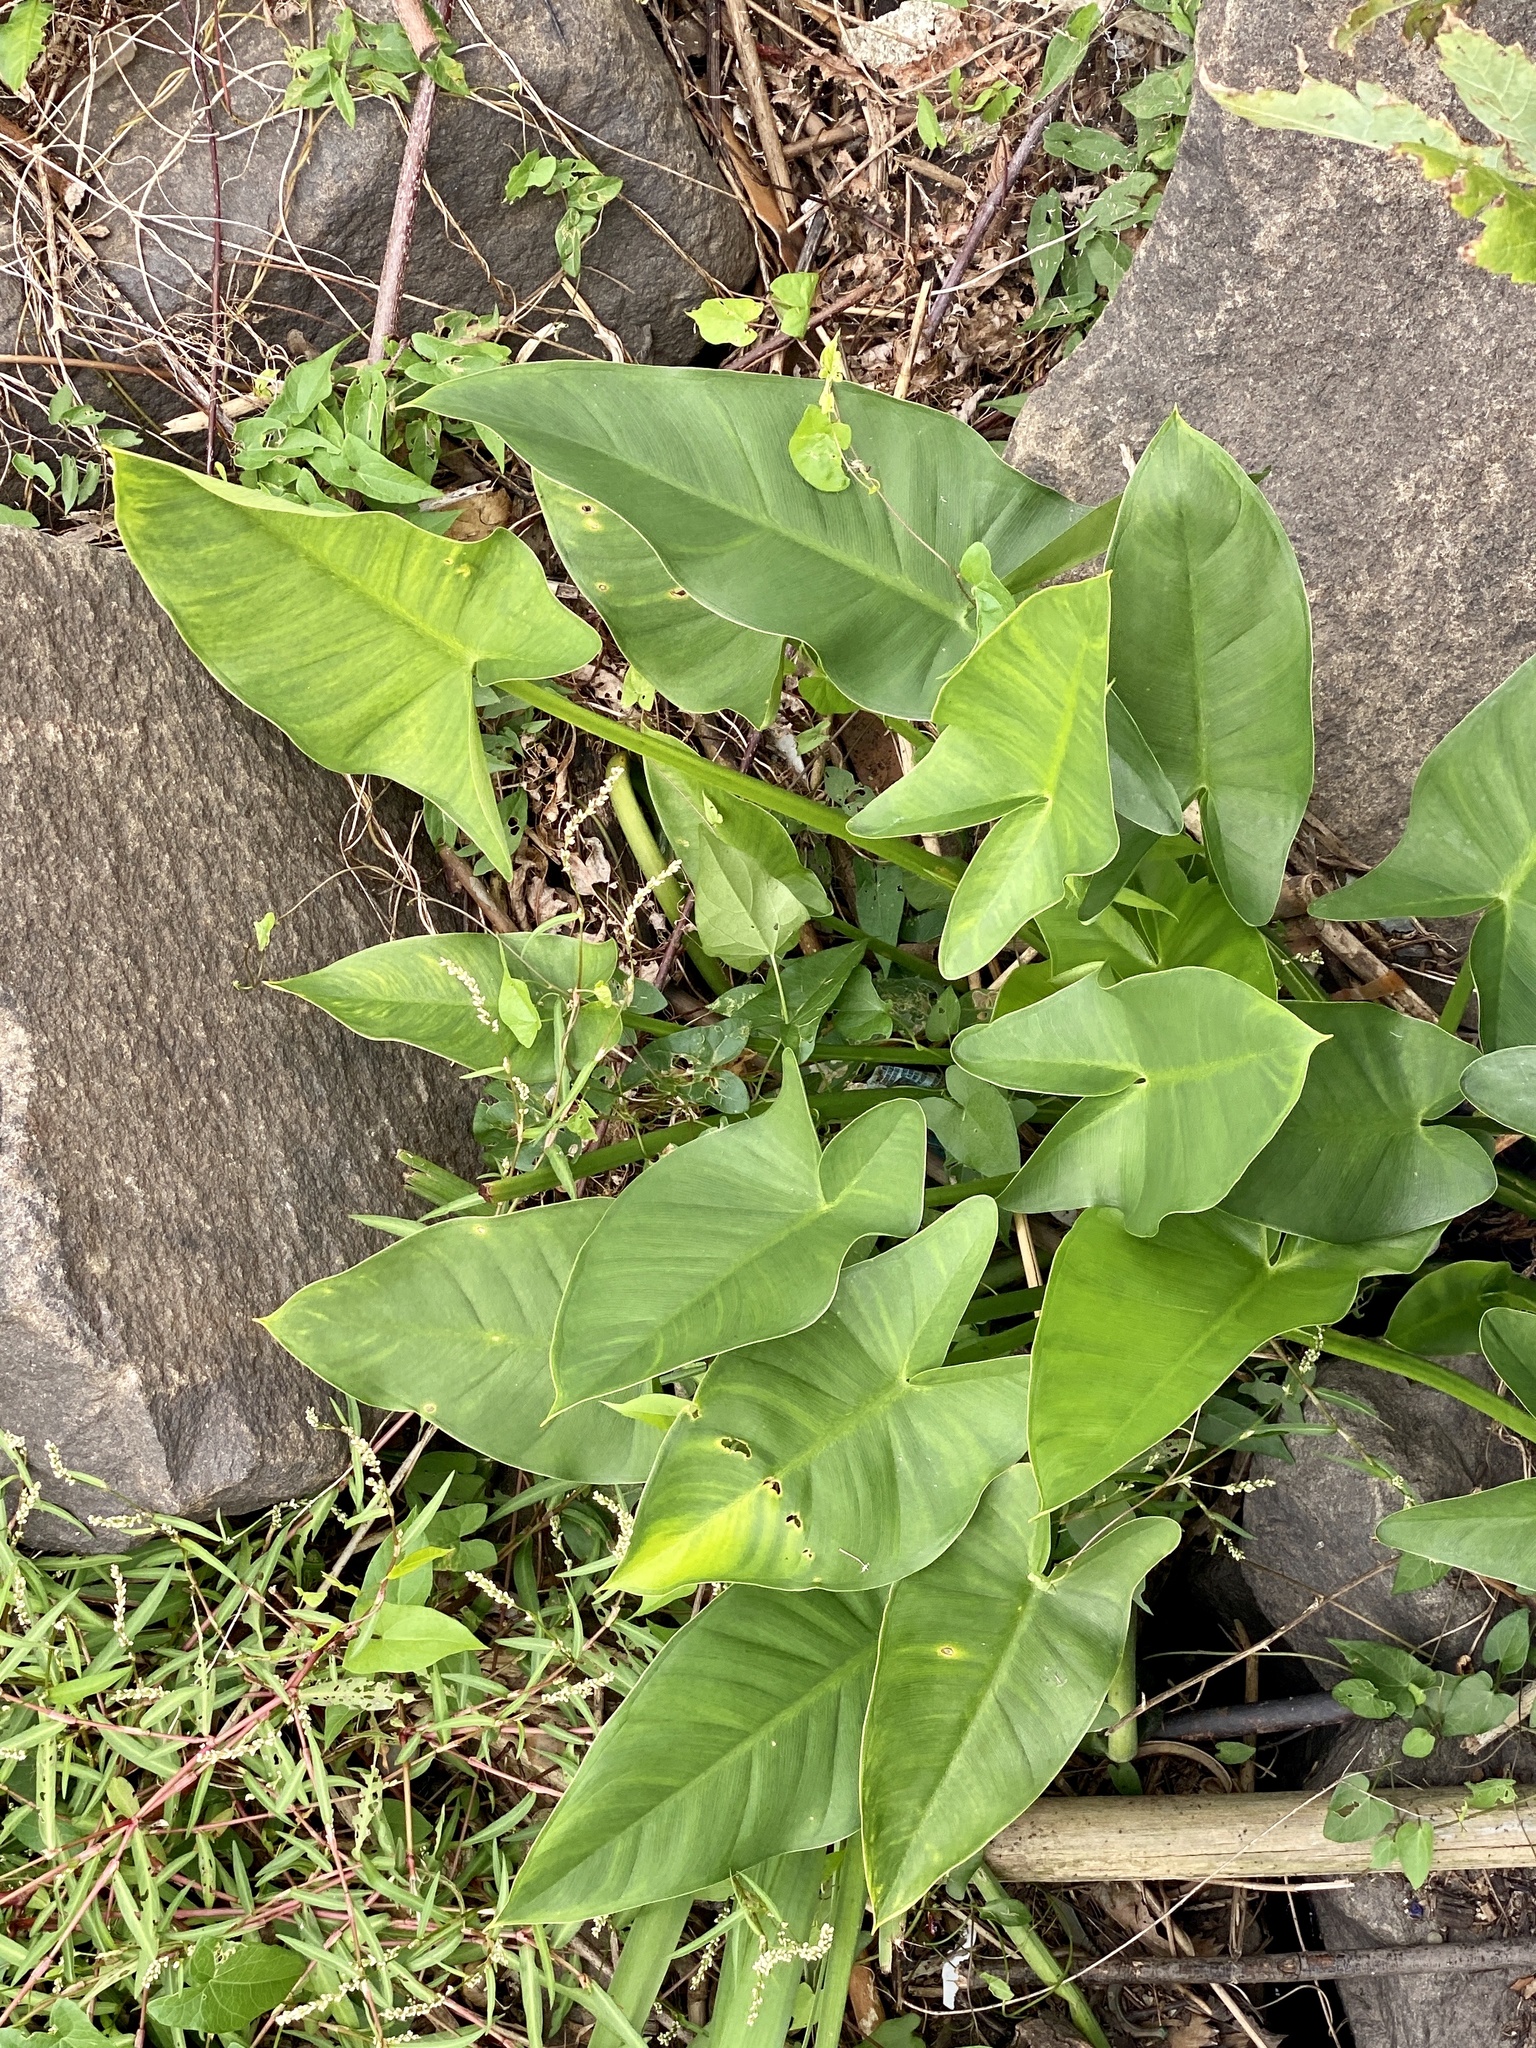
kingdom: Plantae
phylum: Tracheophyta
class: Liliopsida
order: Alismatales
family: Araceae
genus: Peltandra
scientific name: Peltandra virginica
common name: Arrow arum
